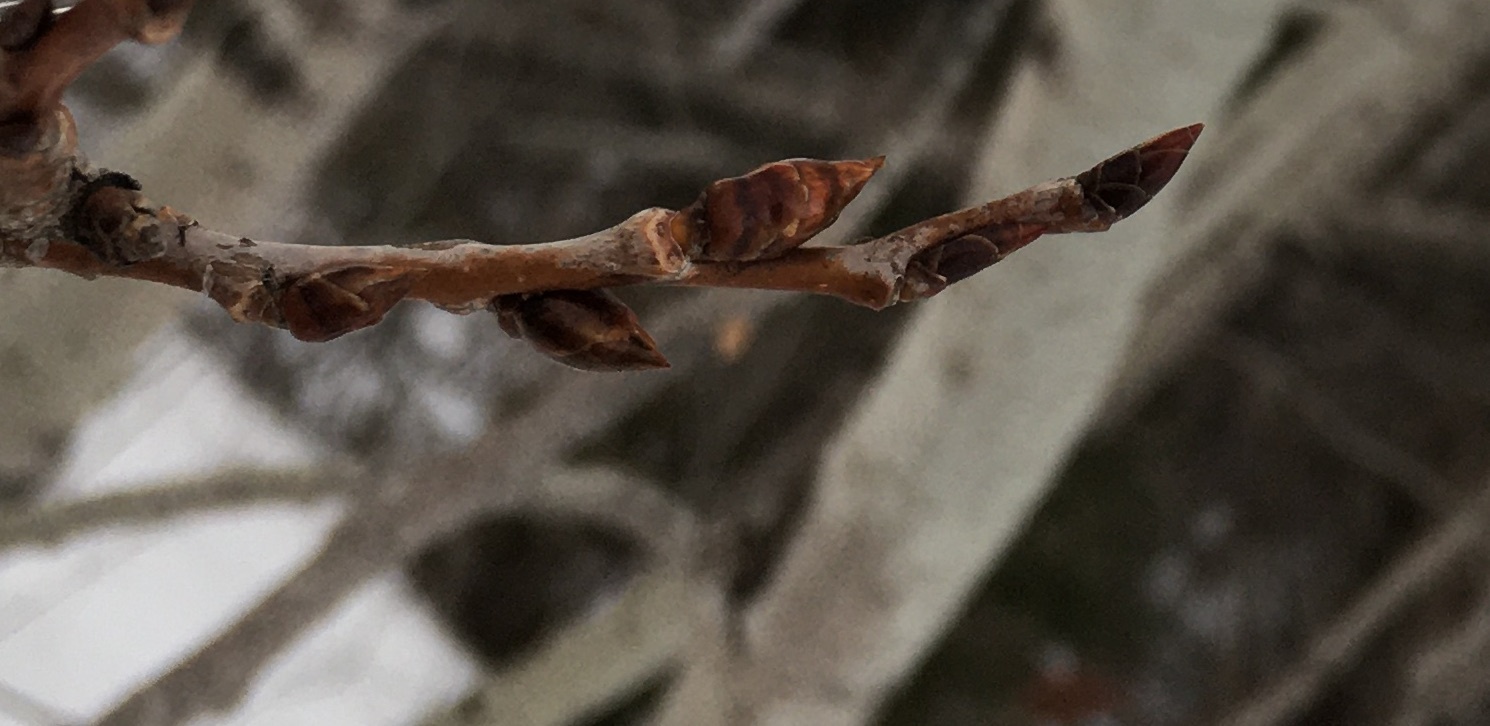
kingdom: Plantae
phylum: Tracheophyta
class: Magnoliopsida
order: Malpighiales
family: Salicaceae
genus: Populus
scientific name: Populus tremuloides
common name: Quaking aspen
